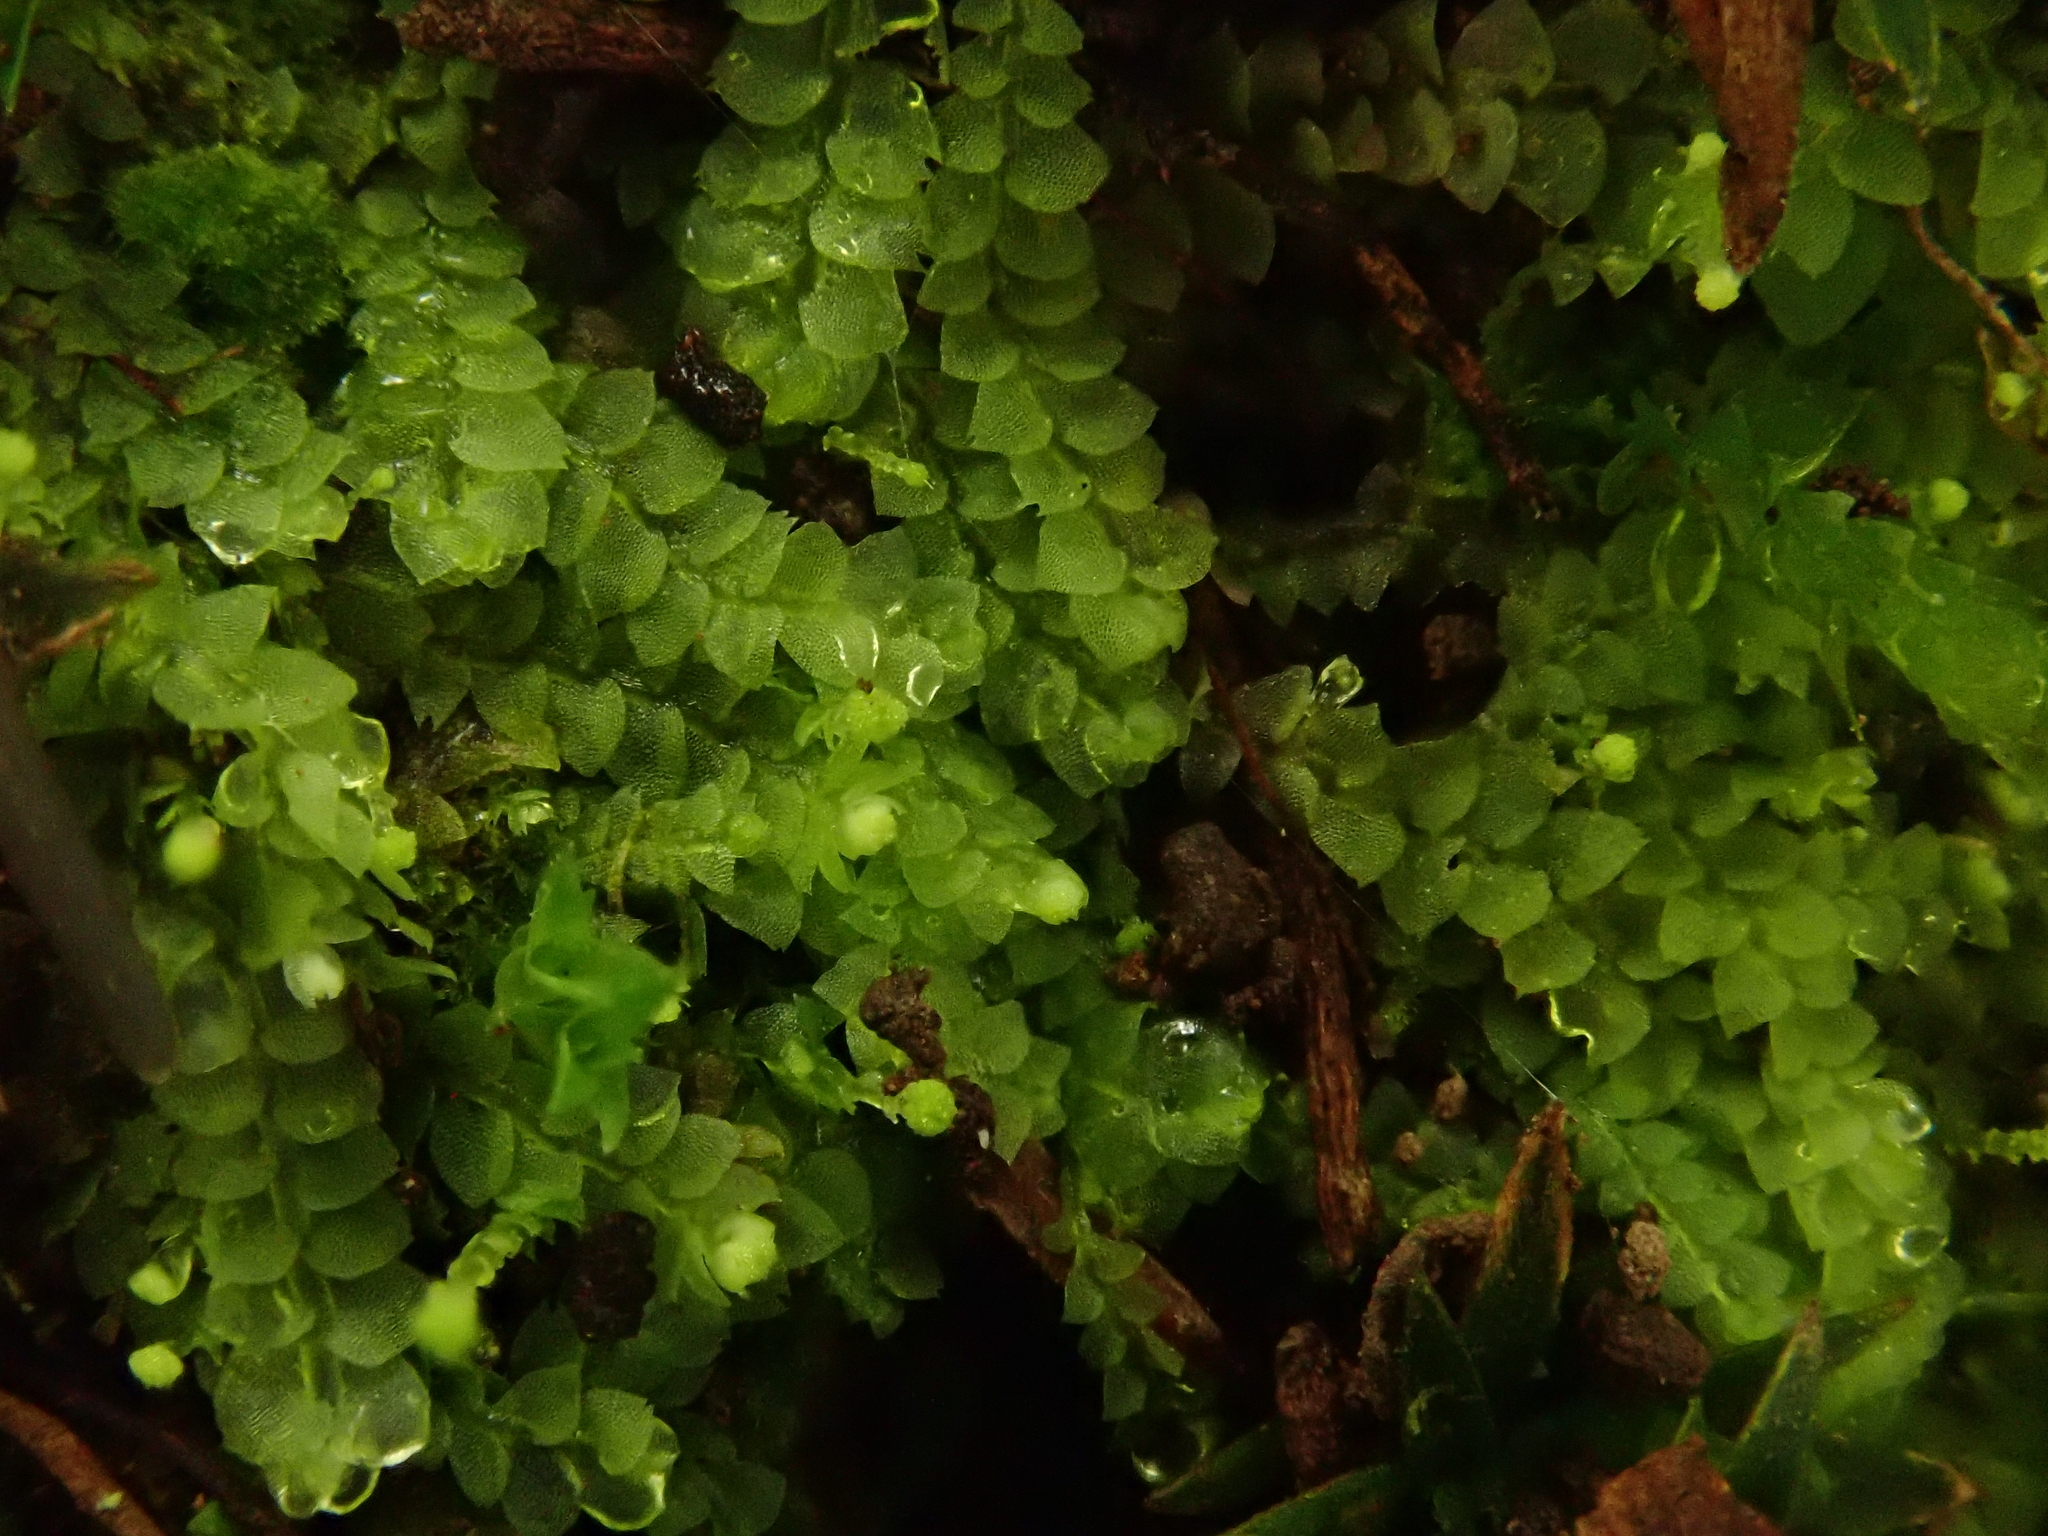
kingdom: Plantae
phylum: Marchantiophyta
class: Jungermanniopsida
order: Jungermanniales
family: Calypogeiaceae
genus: Calypogeia
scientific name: Calypogeia fissa
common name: Common pouchwort
